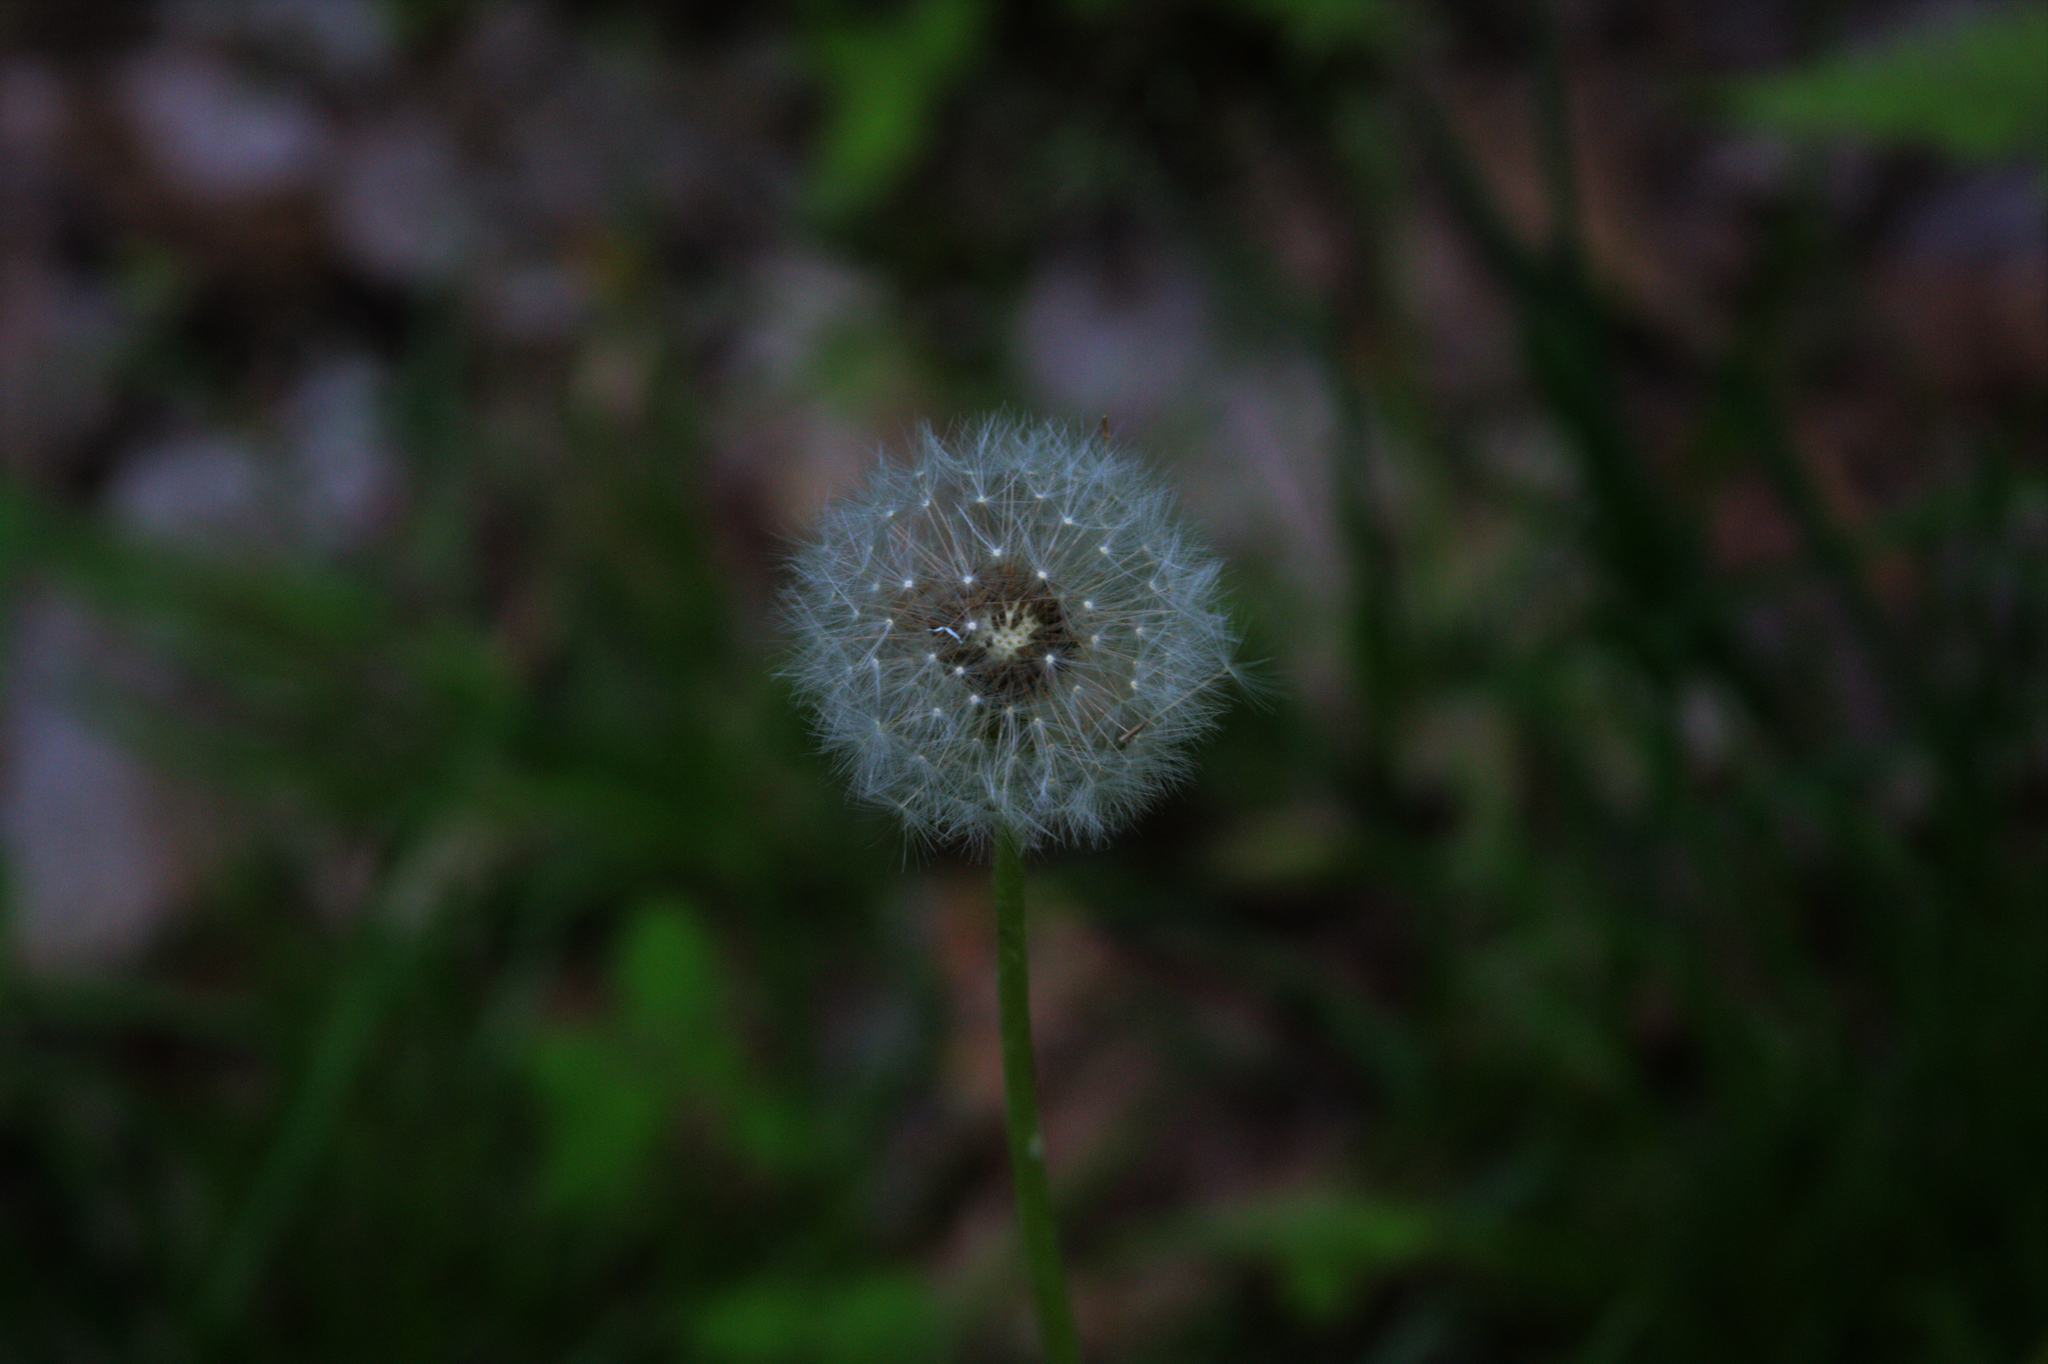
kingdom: Plantae
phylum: Tracheophyta
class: Magnoliopsida
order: Asterales
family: Asteraceae
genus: Taraxacum
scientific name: Taraxacum officinale
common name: Common dandelion
